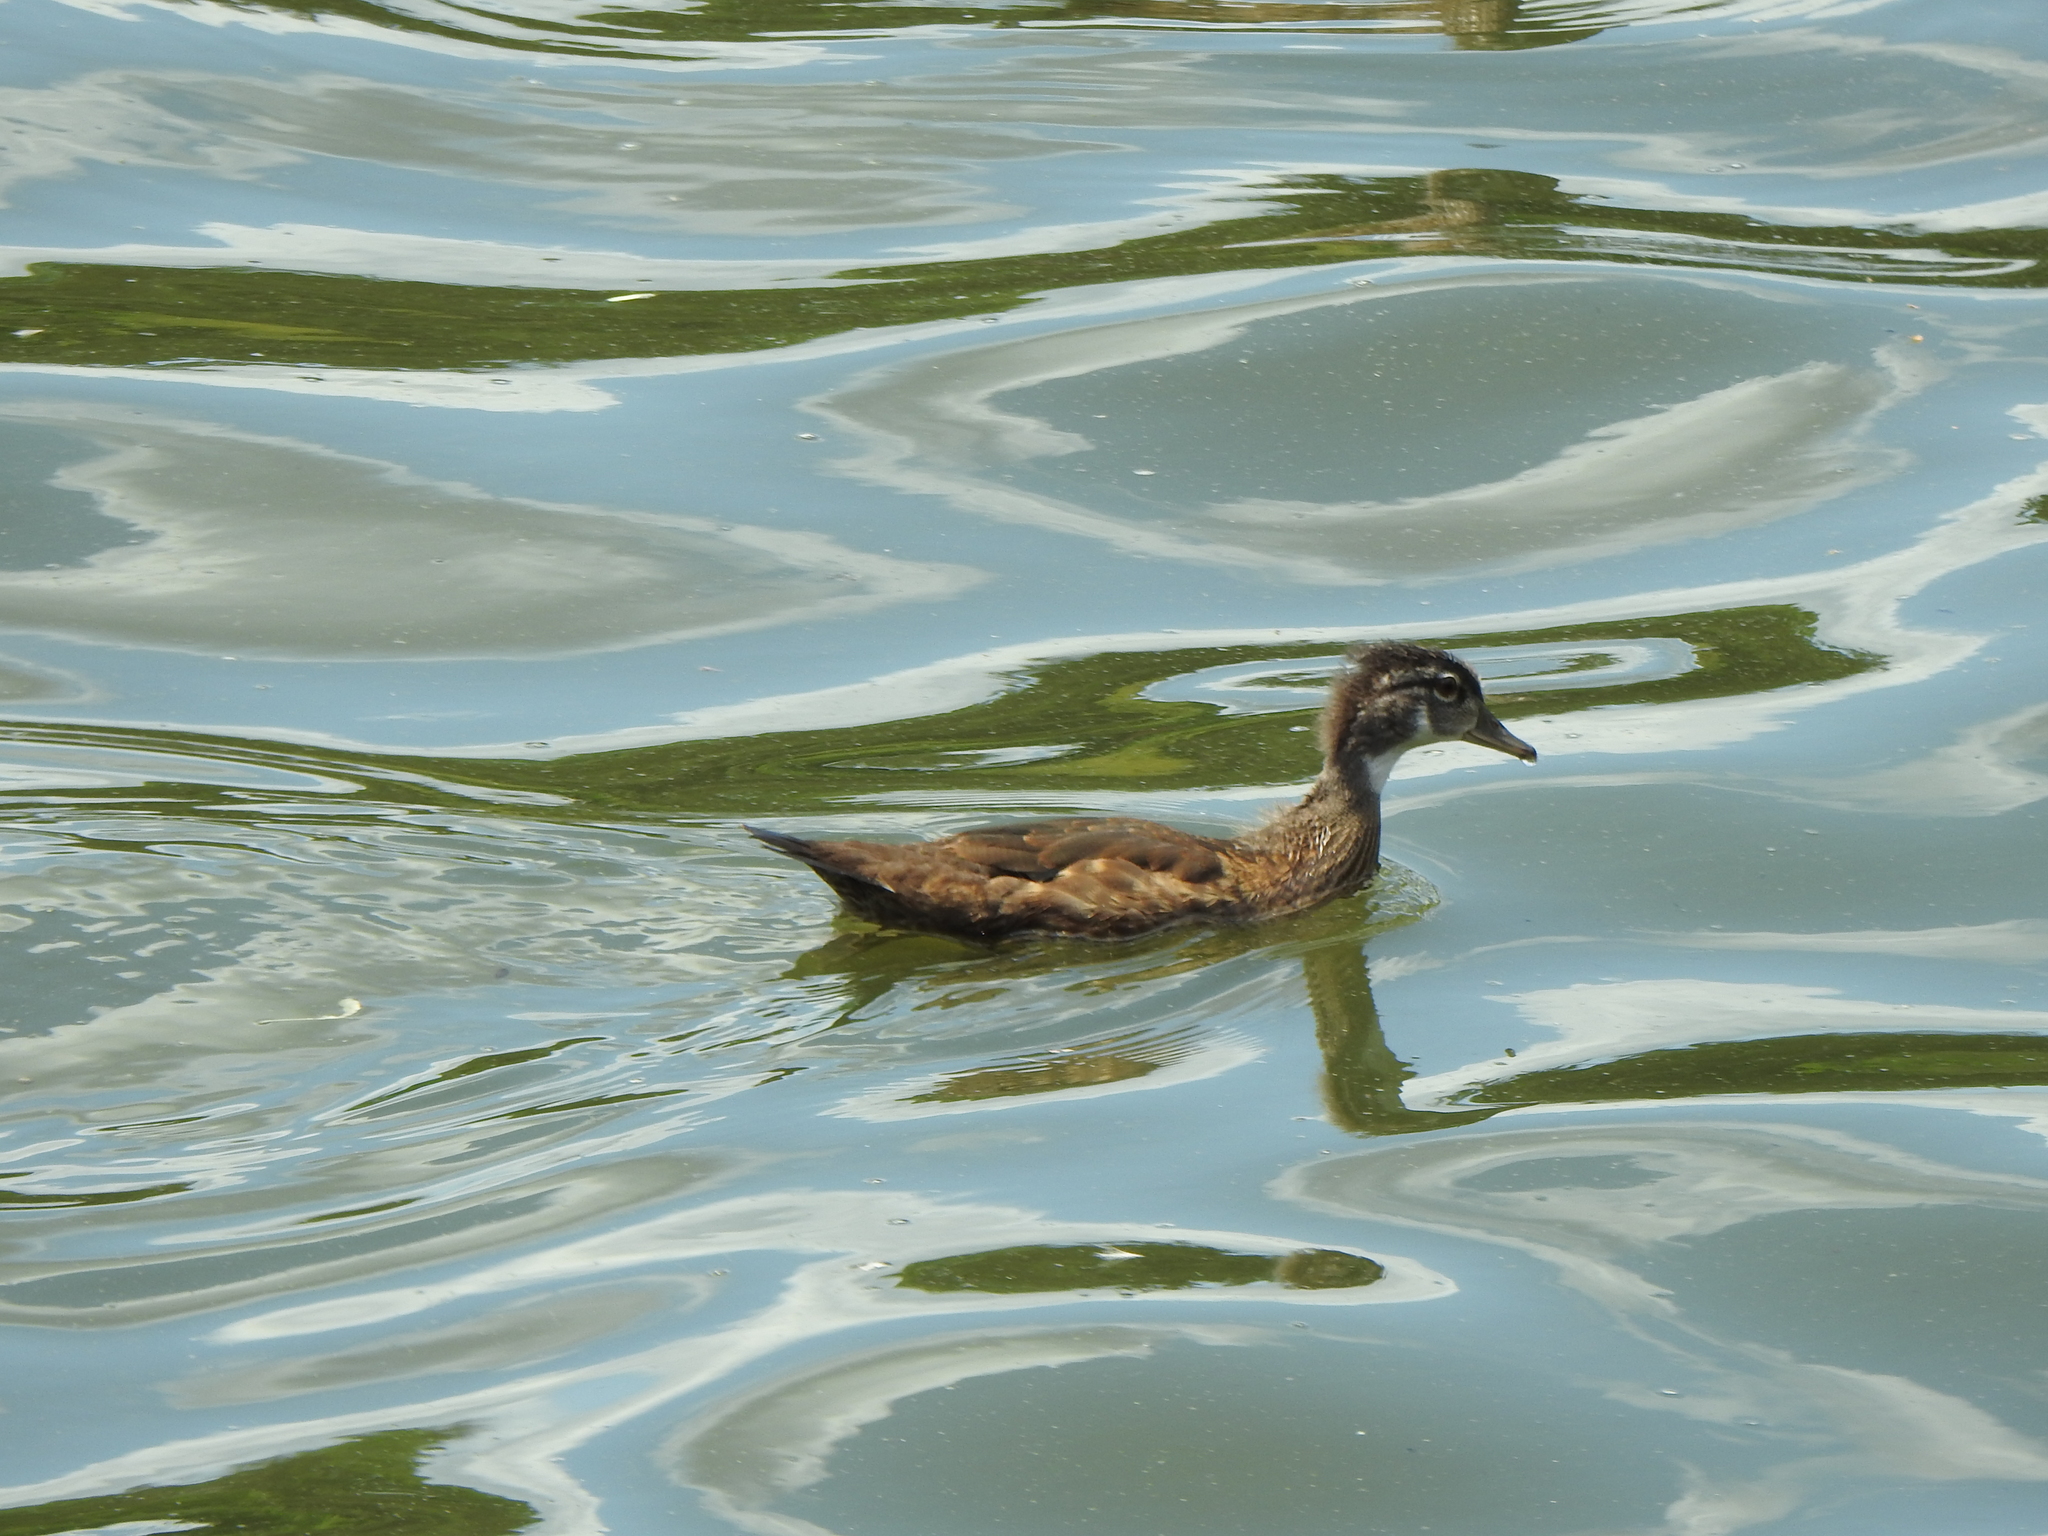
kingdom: Animalia
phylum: Chordata
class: Aves
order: Anseriformes
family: Anatidae
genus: Aix
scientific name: Aix sponsa
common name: Wood duck
